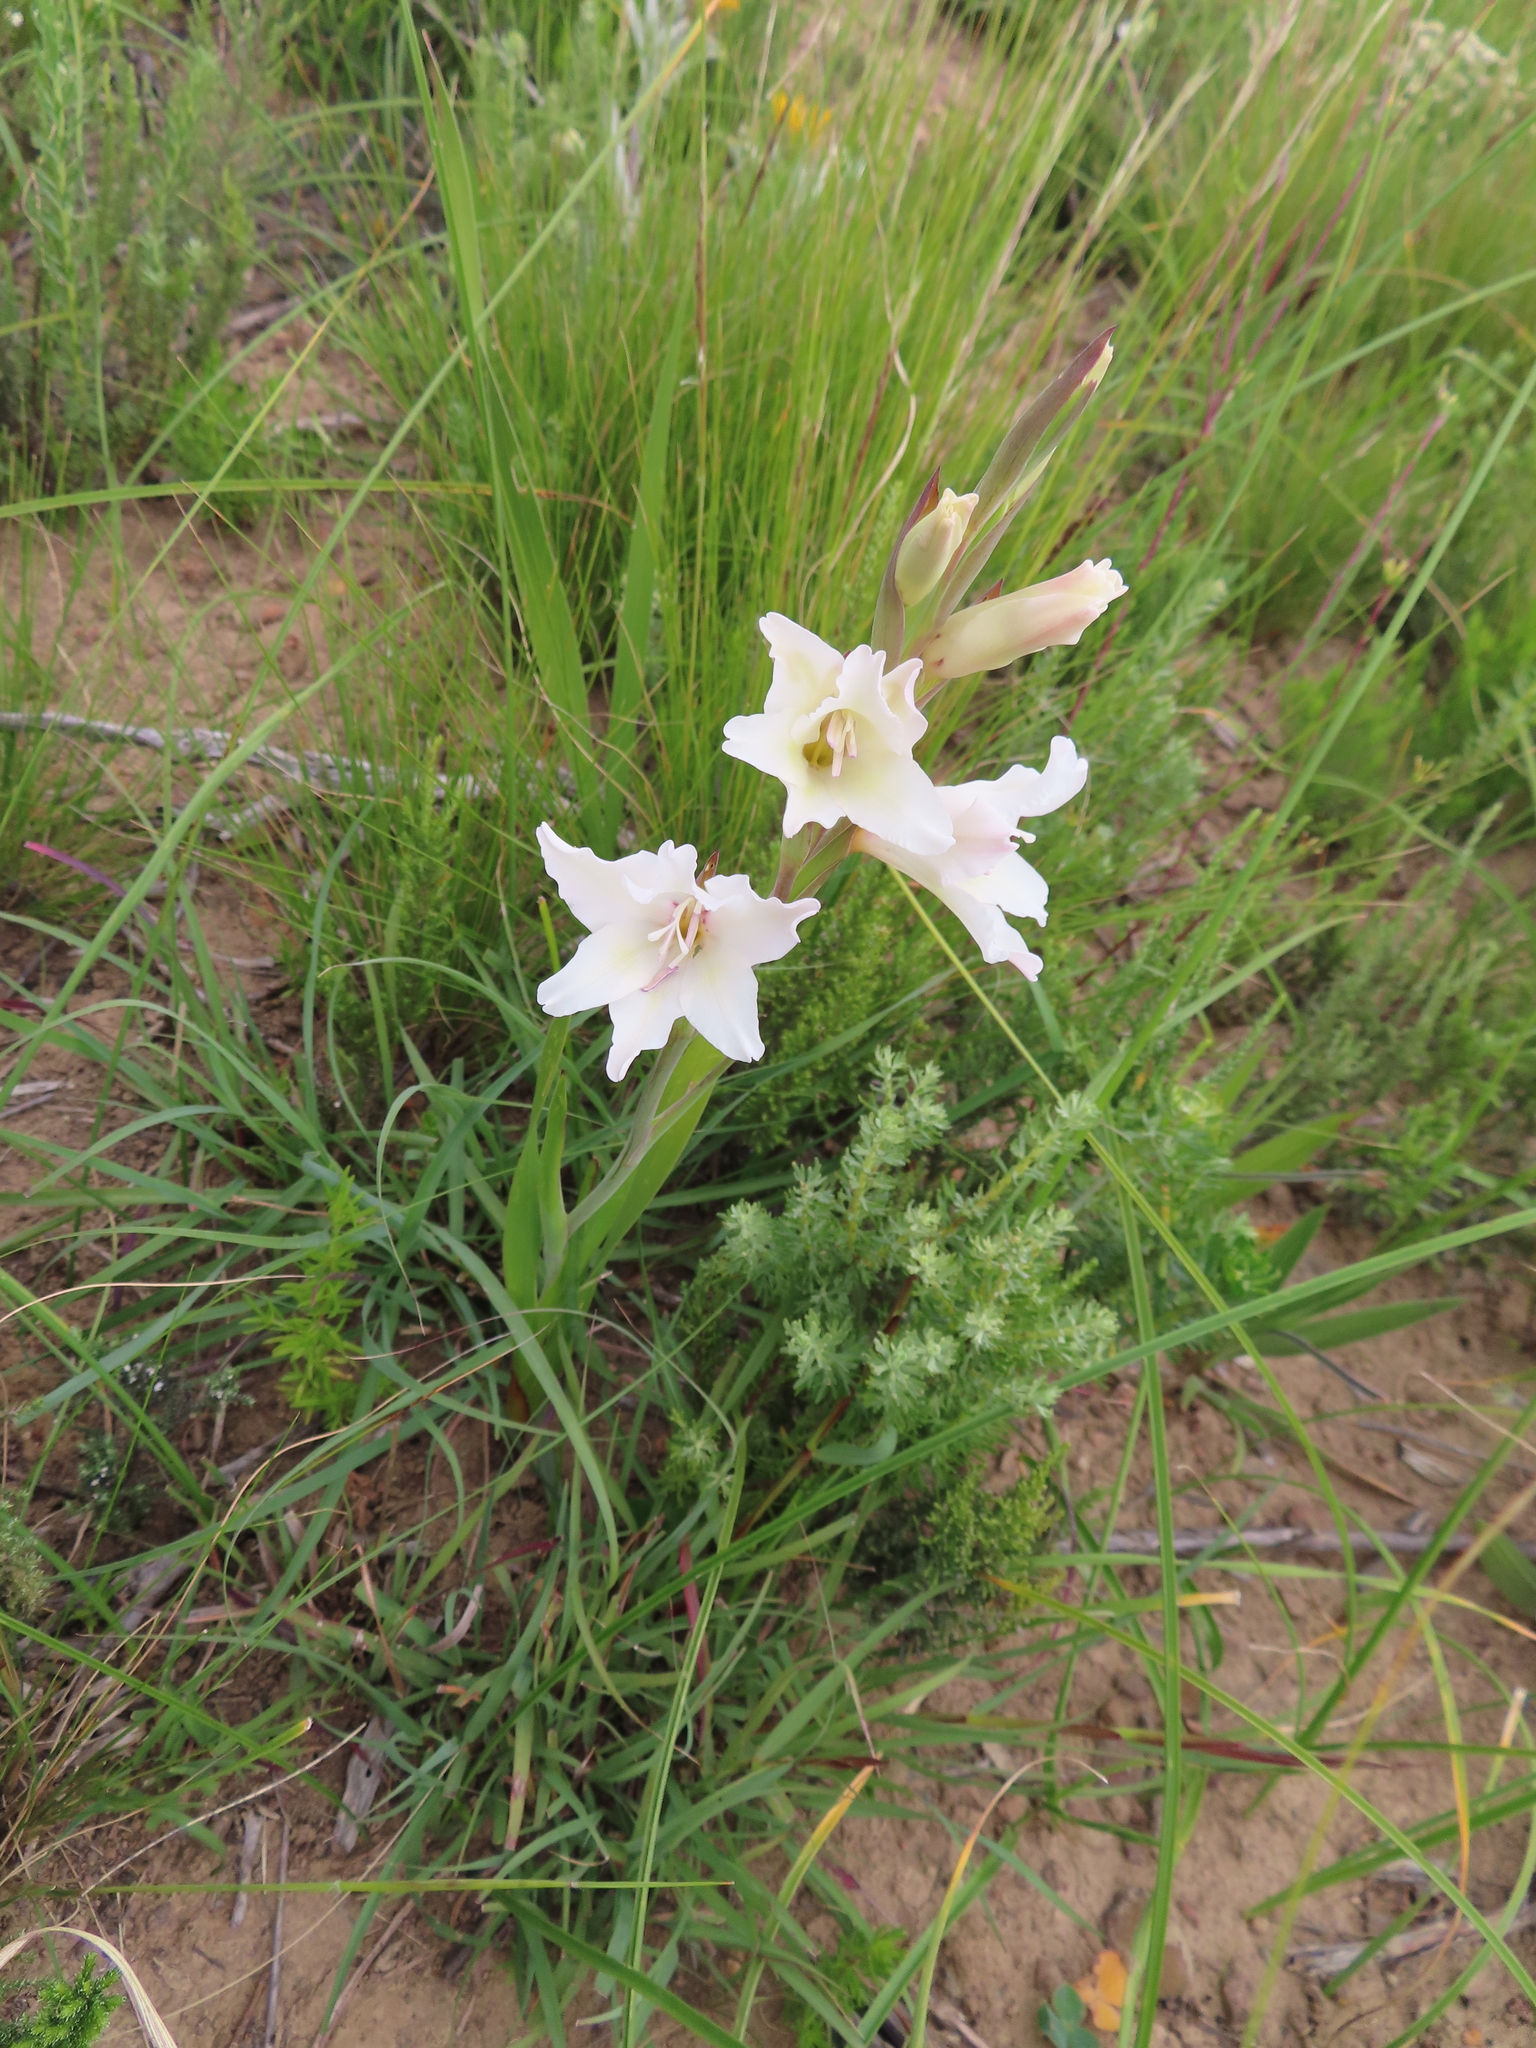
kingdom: Plantae
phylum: Tracheophyta
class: Liliopsida
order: Asparagales
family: Iridaceae
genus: Gladiolus
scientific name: Gladiolus carneus
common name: Painted-lady
